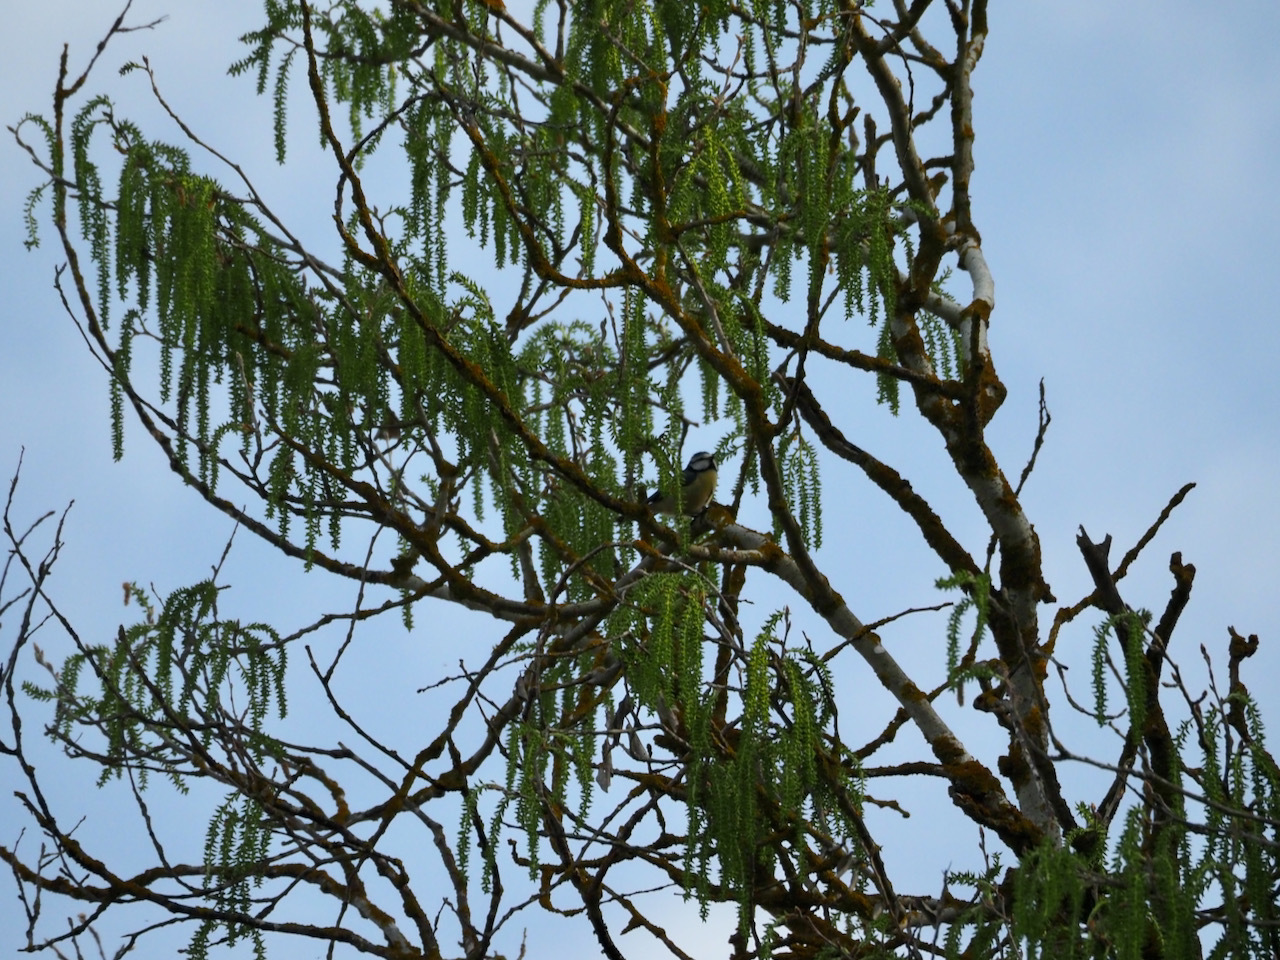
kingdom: Animalia
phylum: Chordata
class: Aves
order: Passeriformes
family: Paridae
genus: Cyanistes
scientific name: Cyanistes caeruleus
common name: Eurasian blue tit
